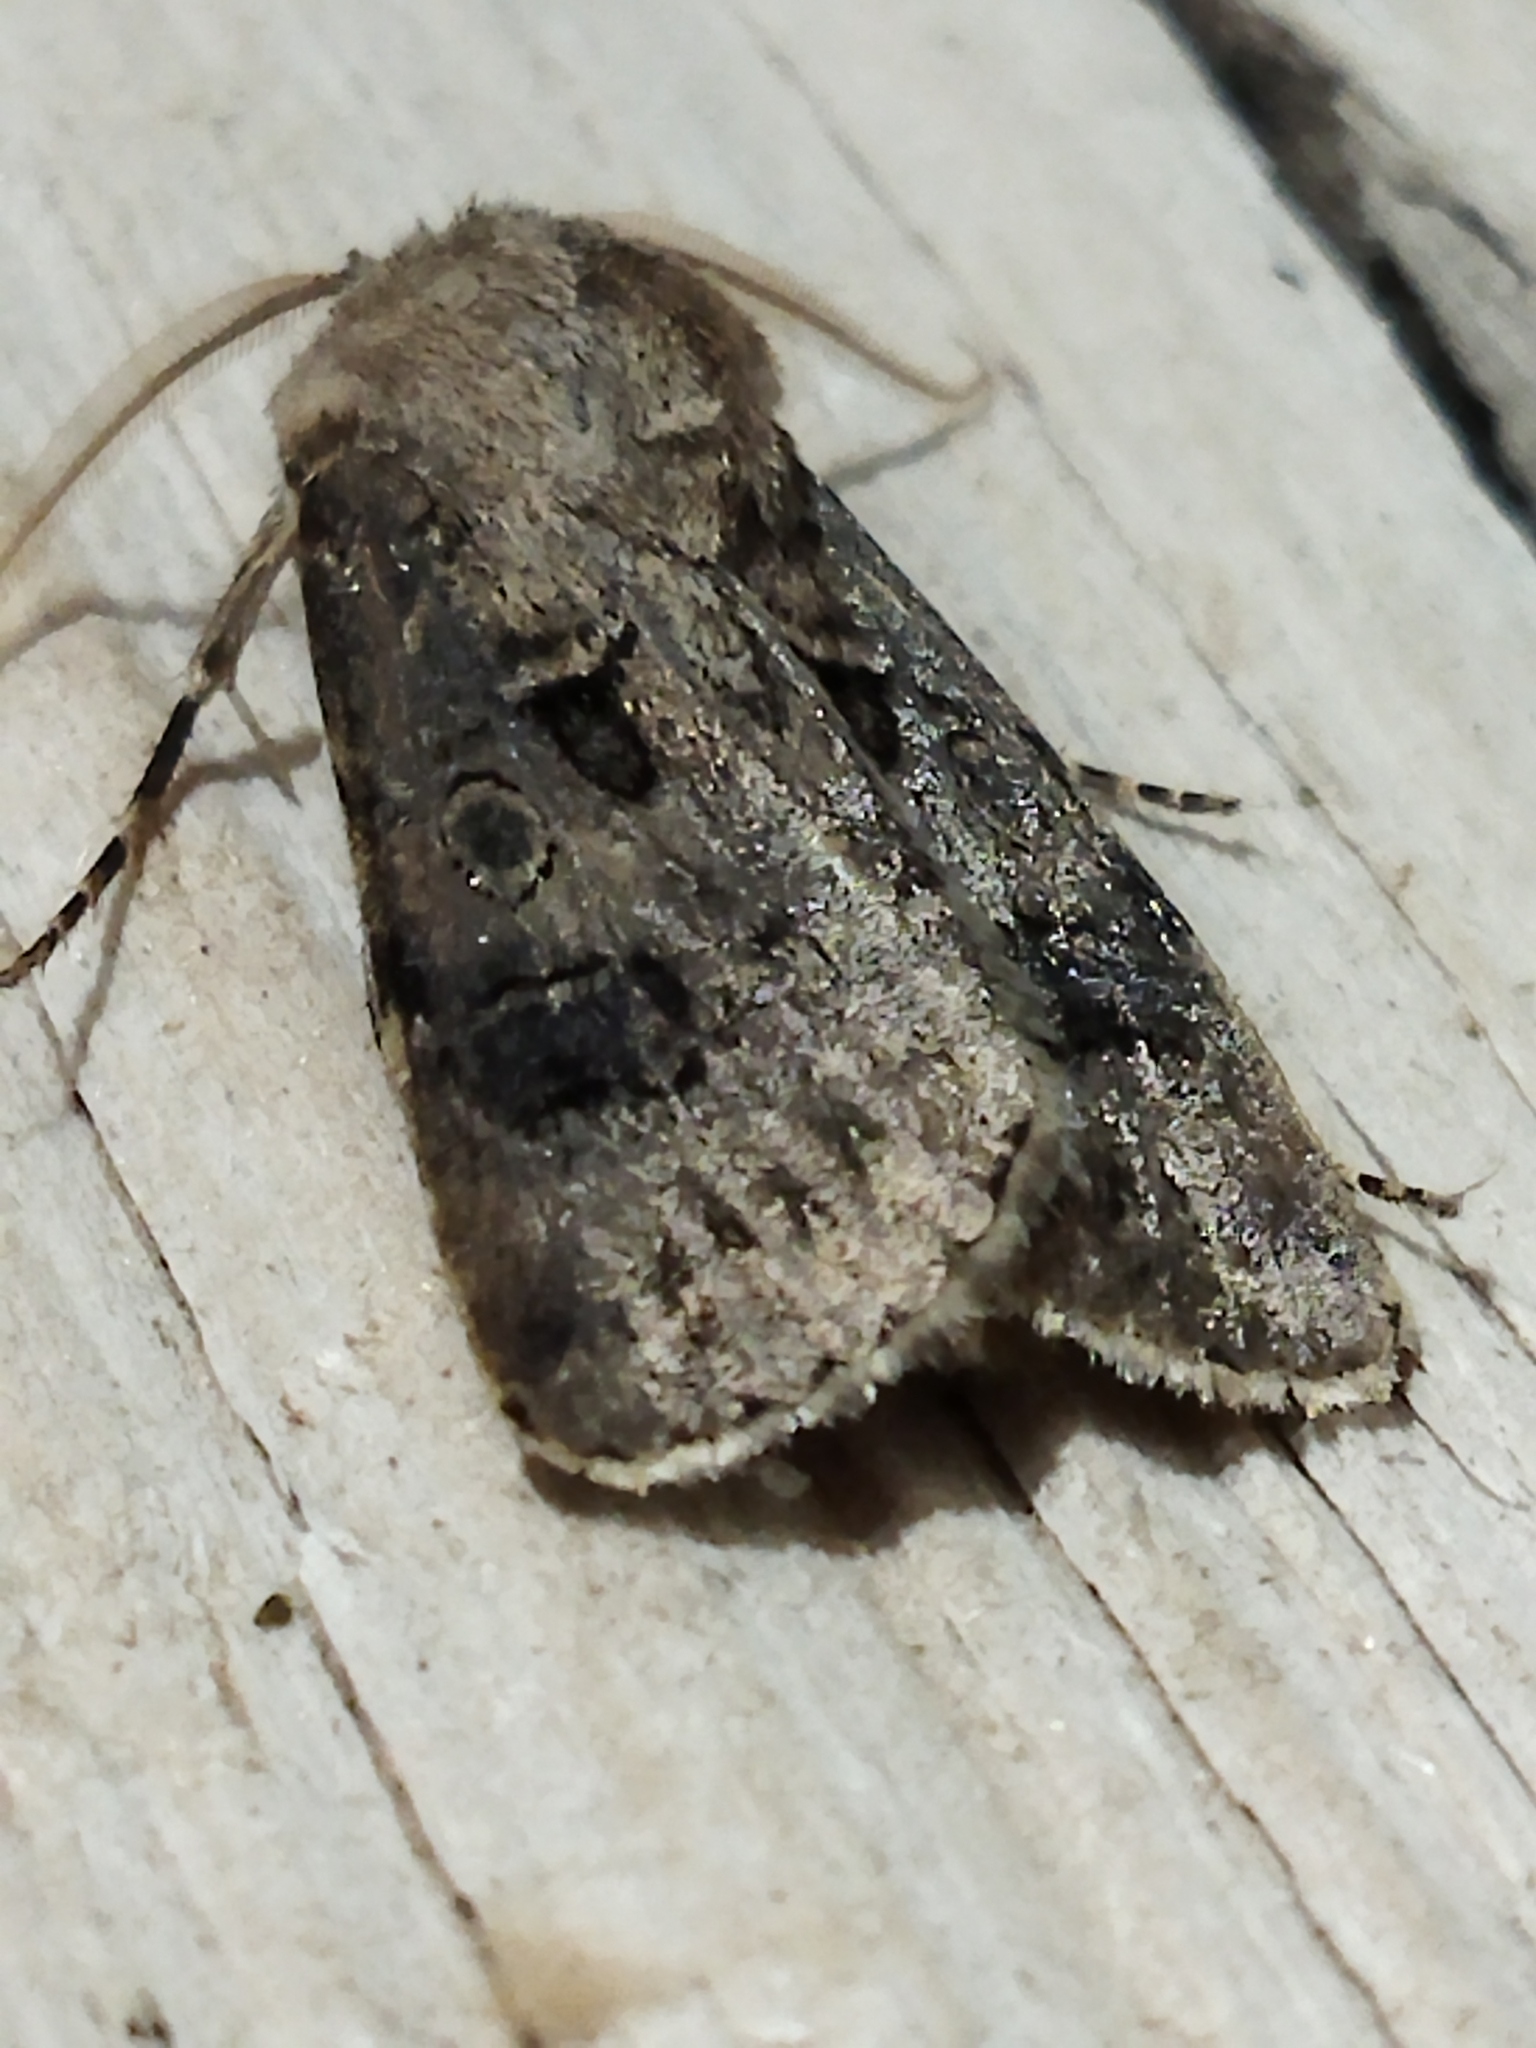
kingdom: Animalia
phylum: Arthropoda
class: Insecta
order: Lepidoptera
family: Noctuidae
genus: Agrotis
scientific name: Agrotis bigramma
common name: Great dart
